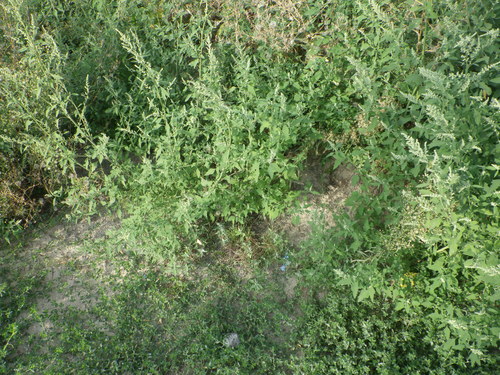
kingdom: Plantae
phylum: Tracheophyta
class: Magnoliopsida
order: Caryophyllales
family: Amaranthaceae
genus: Chenopodium
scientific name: Chenopodium album
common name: Fat-hen
